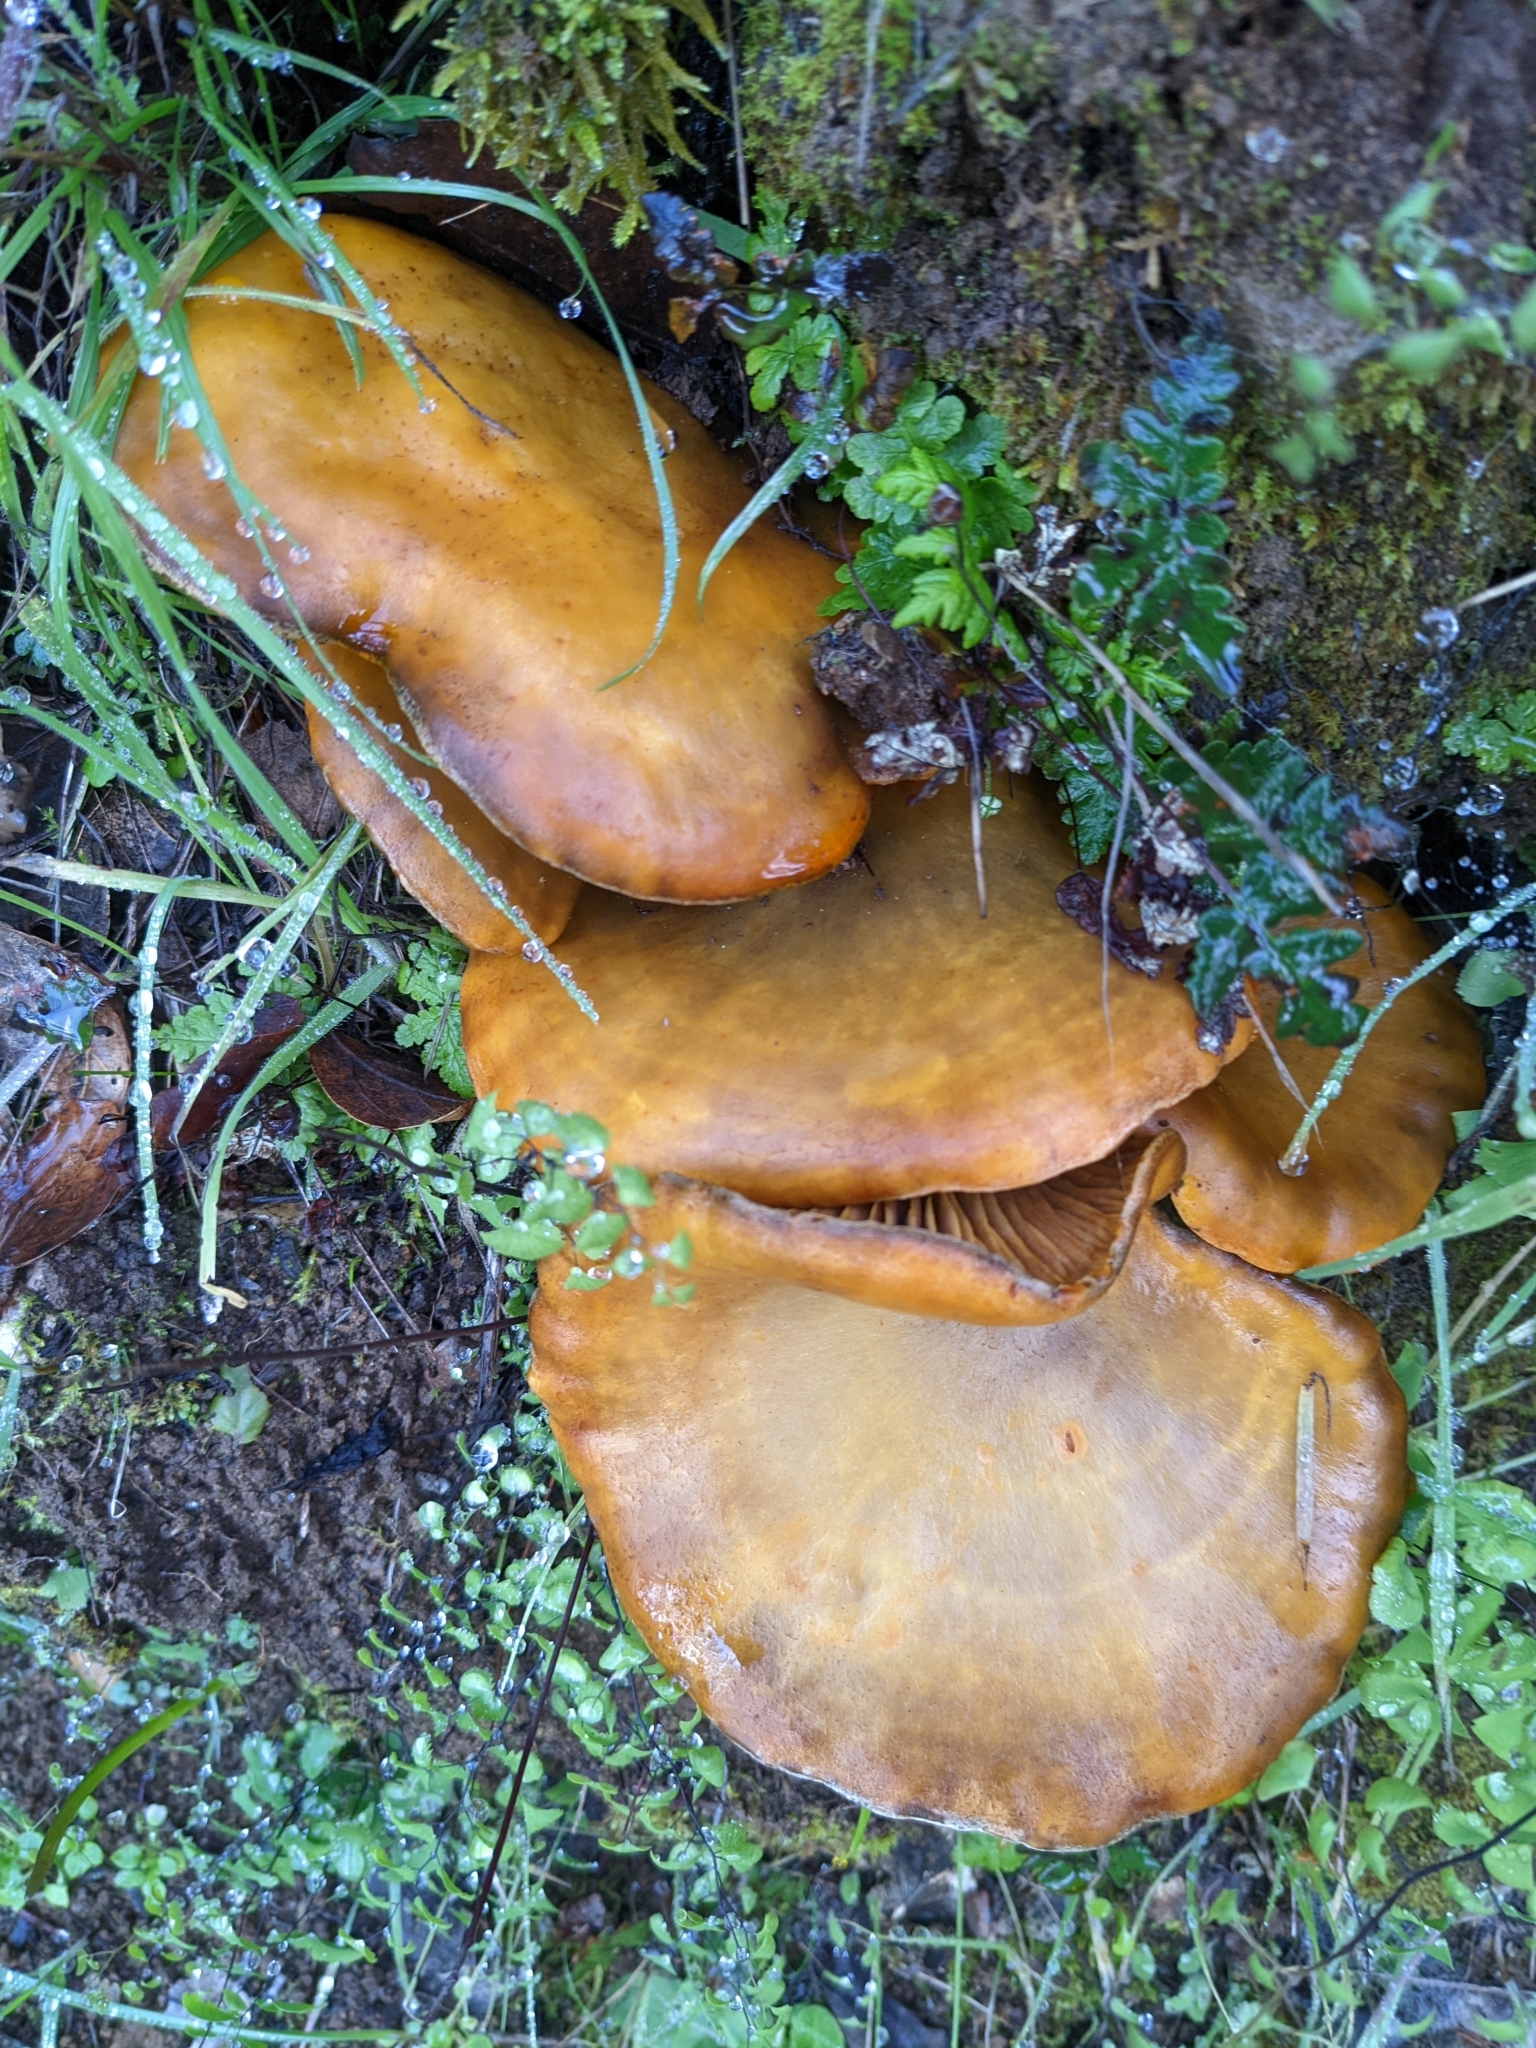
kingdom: Fungi
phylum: Basidiomycota
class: Agaricomycetes
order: Agaricales
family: Omphalotaceae
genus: Omphalotus
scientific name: Omphalotus olivascens
